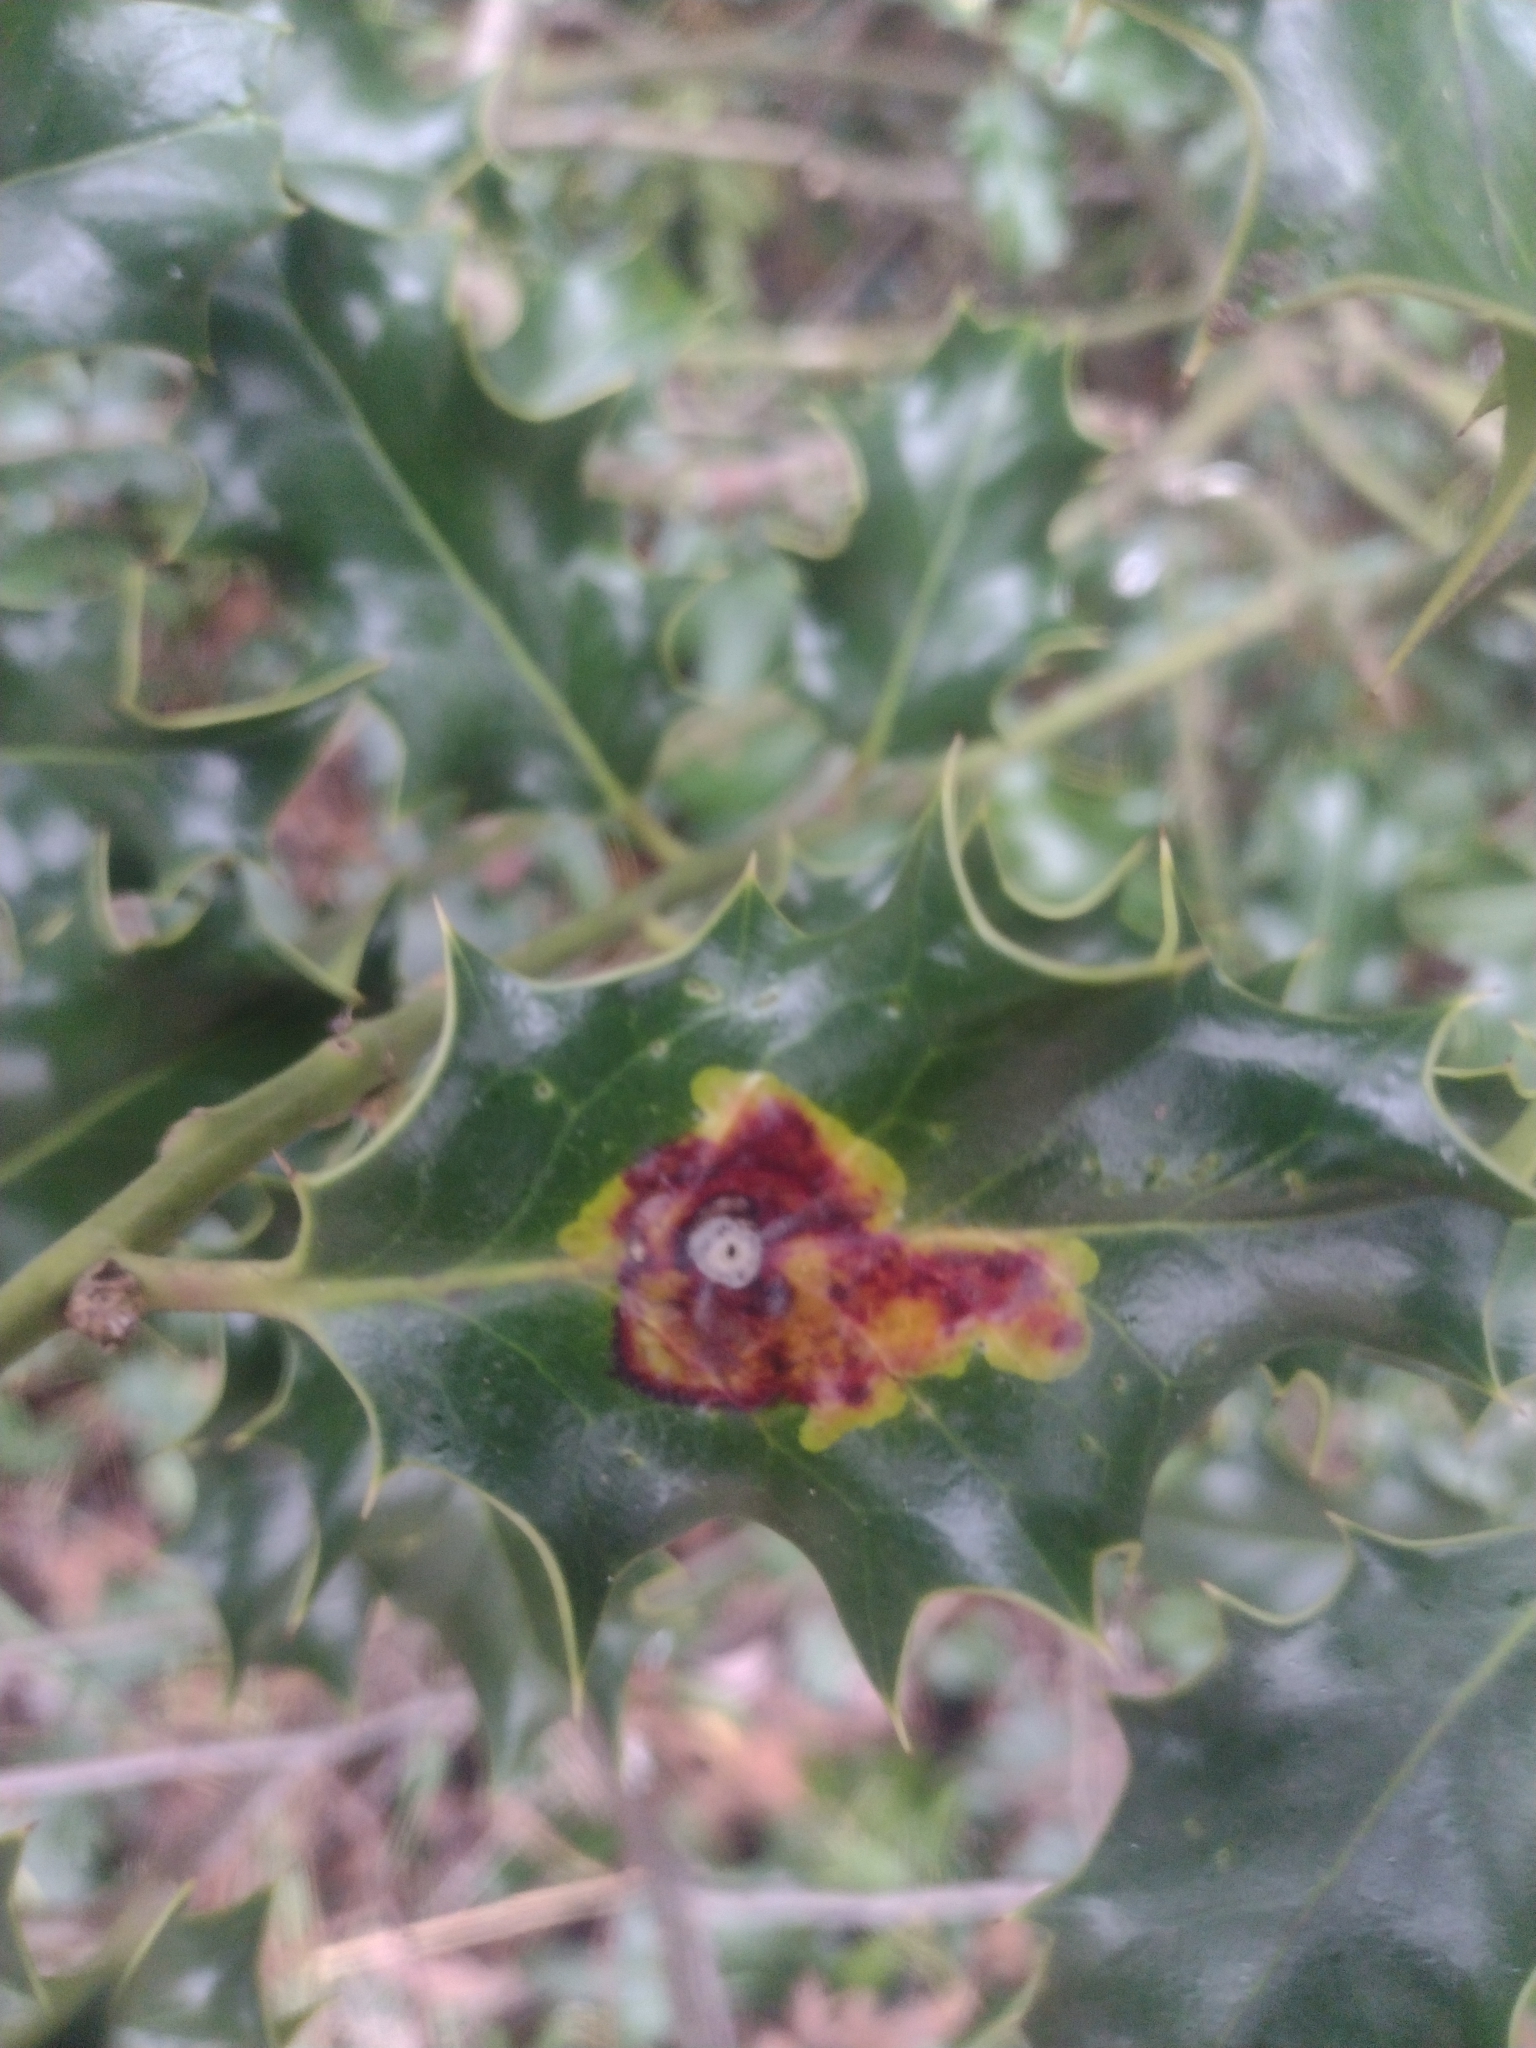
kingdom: Animalia
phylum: Arthropoda
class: Insecta
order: Diptera
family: Agromyzidae
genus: Phytomyza
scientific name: Phytomyza ilicis
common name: Holly leafminer
